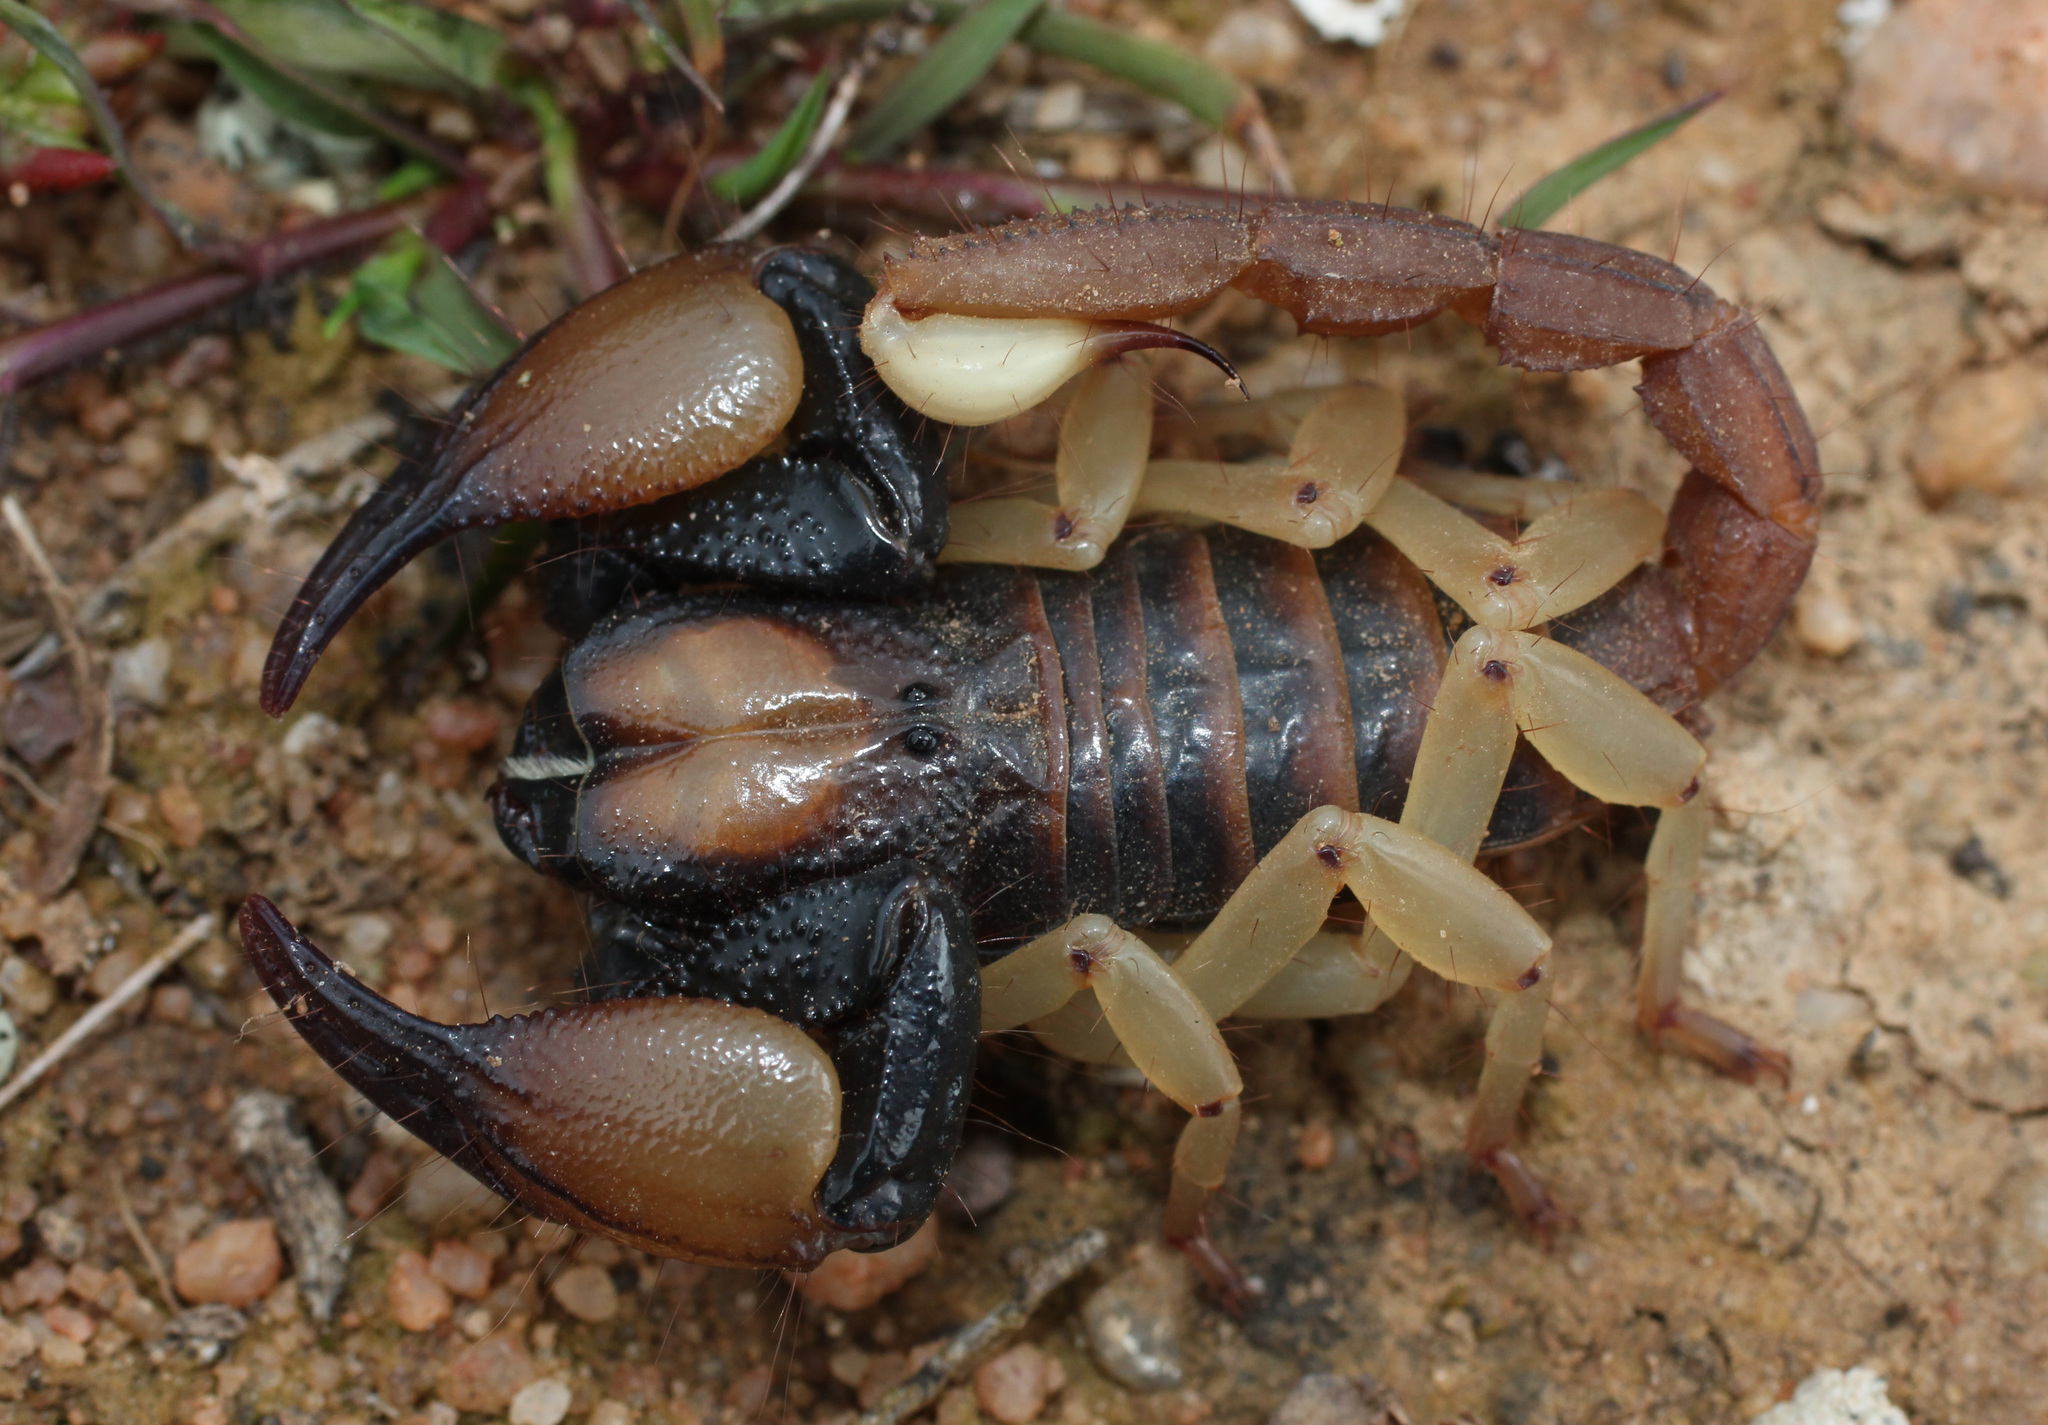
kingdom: Animalia
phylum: Arthropoda
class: Arachnida
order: Scorpiones
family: Scorpionidae
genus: Opistophthalmus
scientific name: Opistophthalmus pallipes
